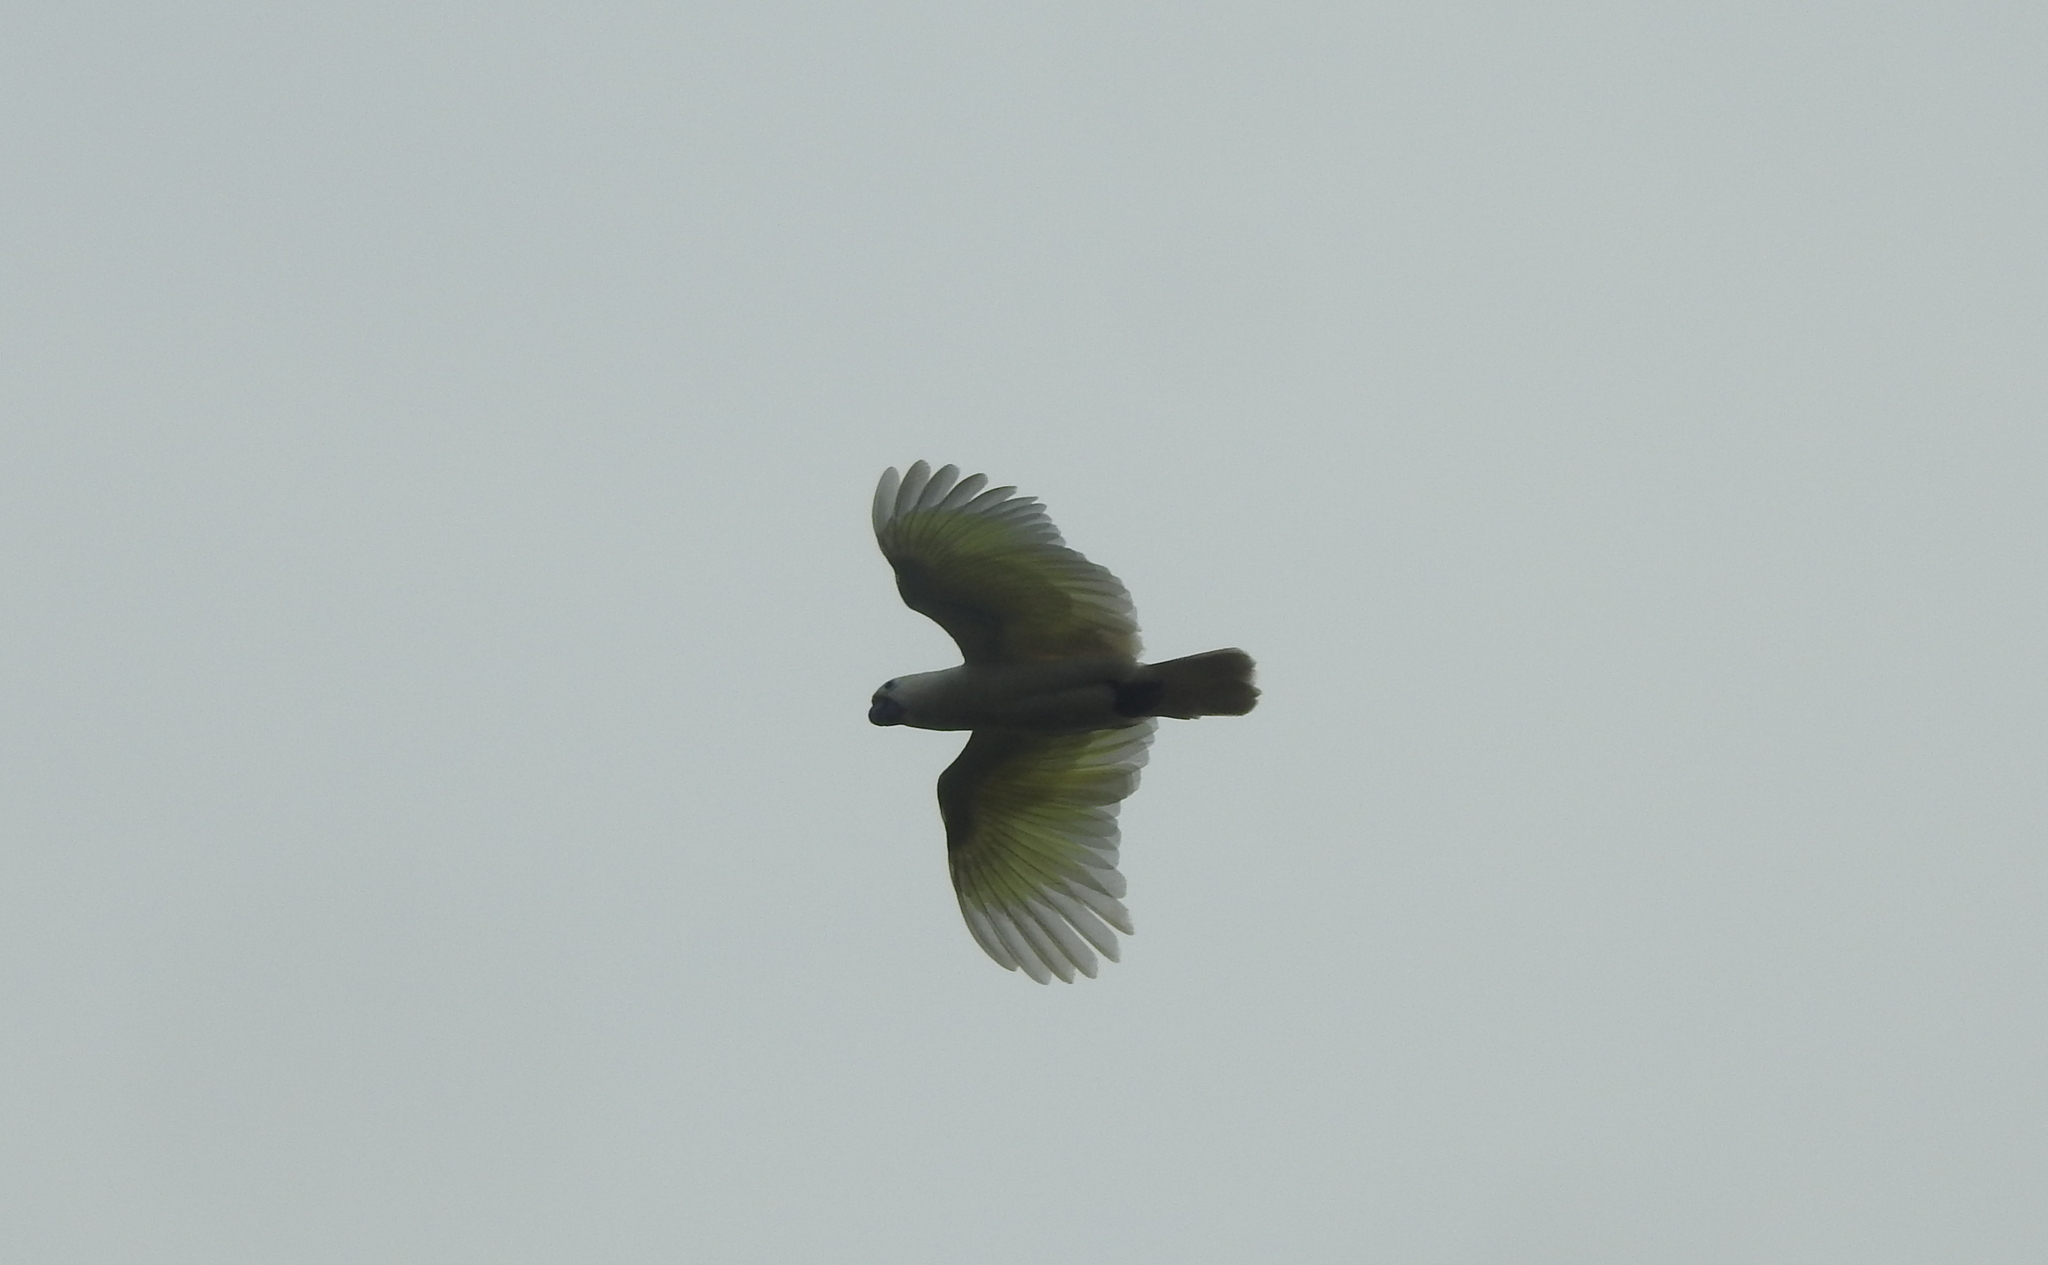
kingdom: Animalia
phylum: Chordata
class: Aves
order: Psittaciformes
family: Psittacidae
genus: Cacatua
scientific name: Cacatua goffiniana
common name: Tanimbar corella
